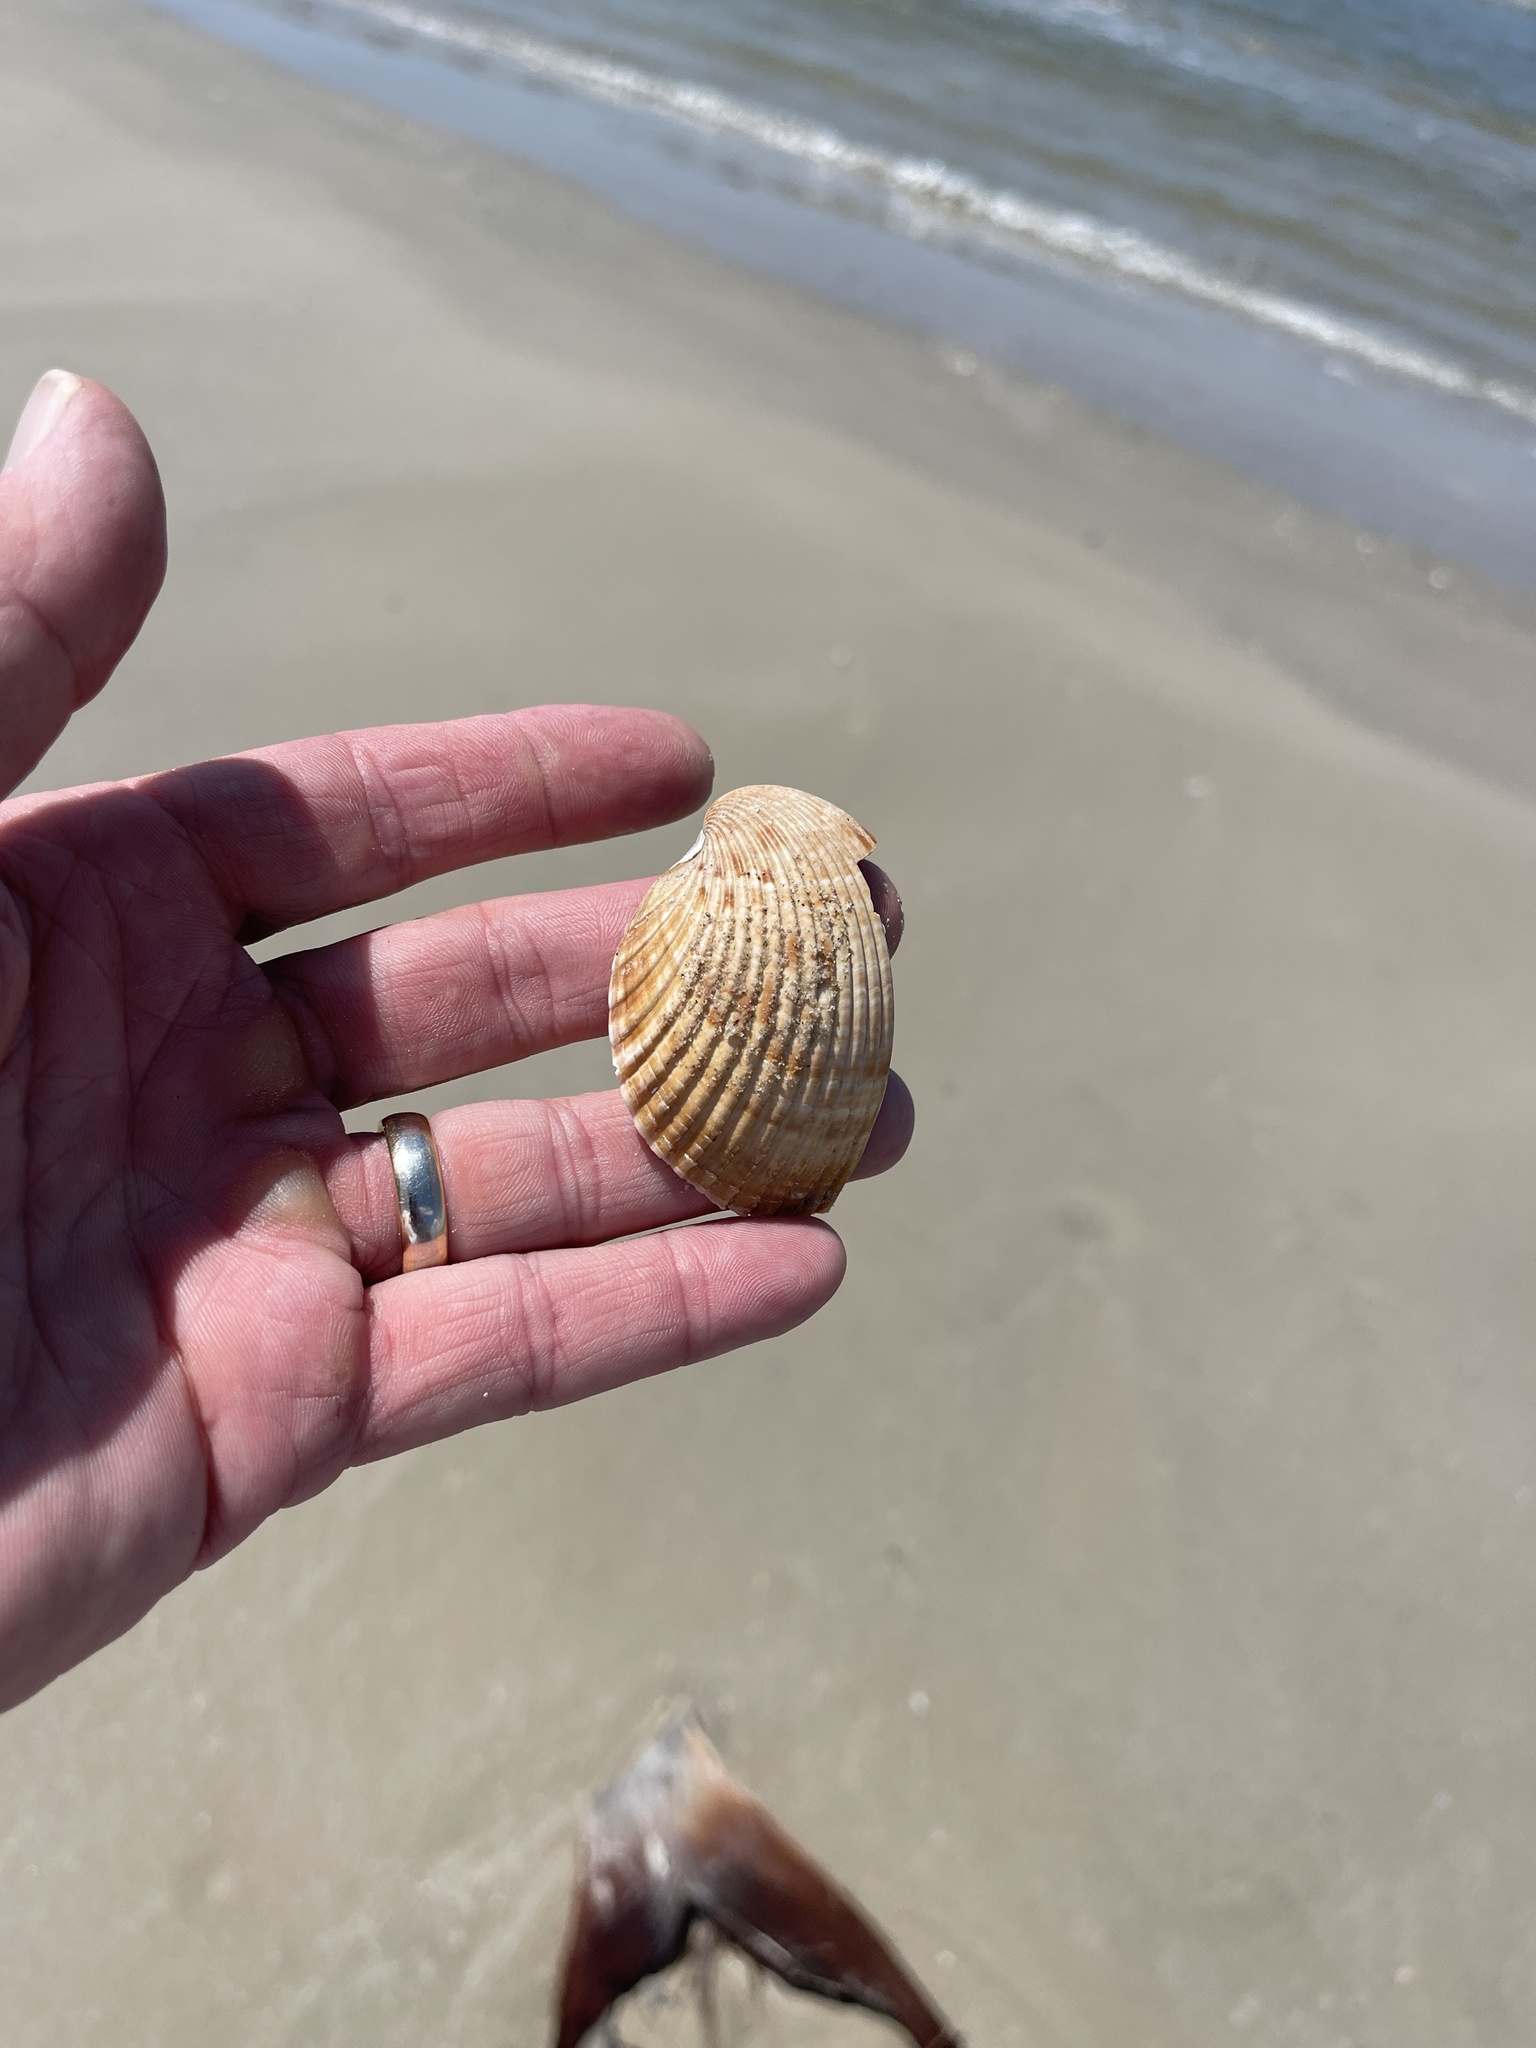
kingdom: Animalia
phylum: Mollusca
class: Bivalvia
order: Cardiida
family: Cardiidae
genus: Dinocardium
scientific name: Dinocardium robustum
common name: Atlantic giant cockle
